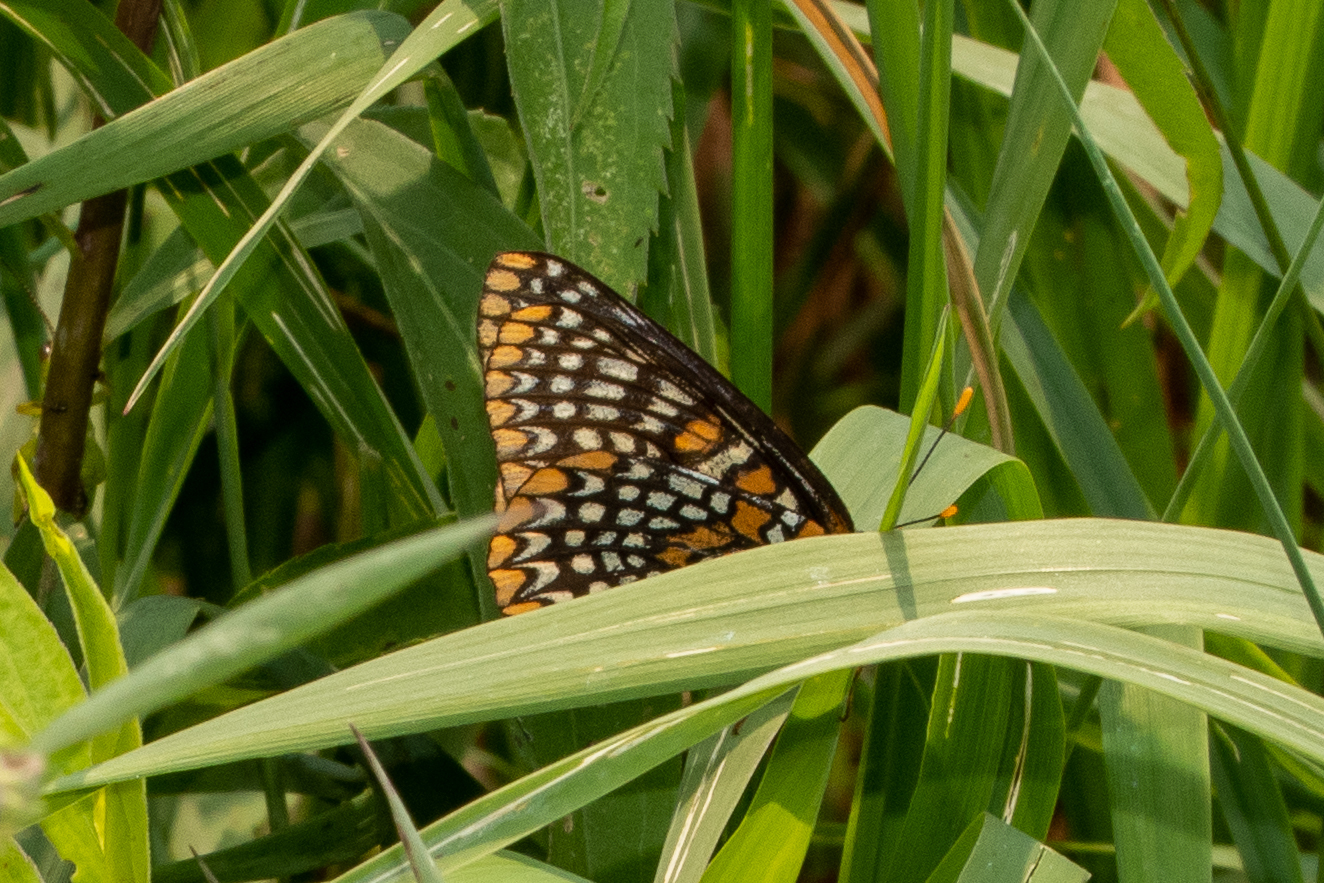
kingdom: Animalia
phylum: Arthropoda
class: Insecta
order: Lepidoptera
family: Nymphalidae
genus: Euphydryas
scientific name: Euphydryas phaeton
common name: Baltimore checkerspot
